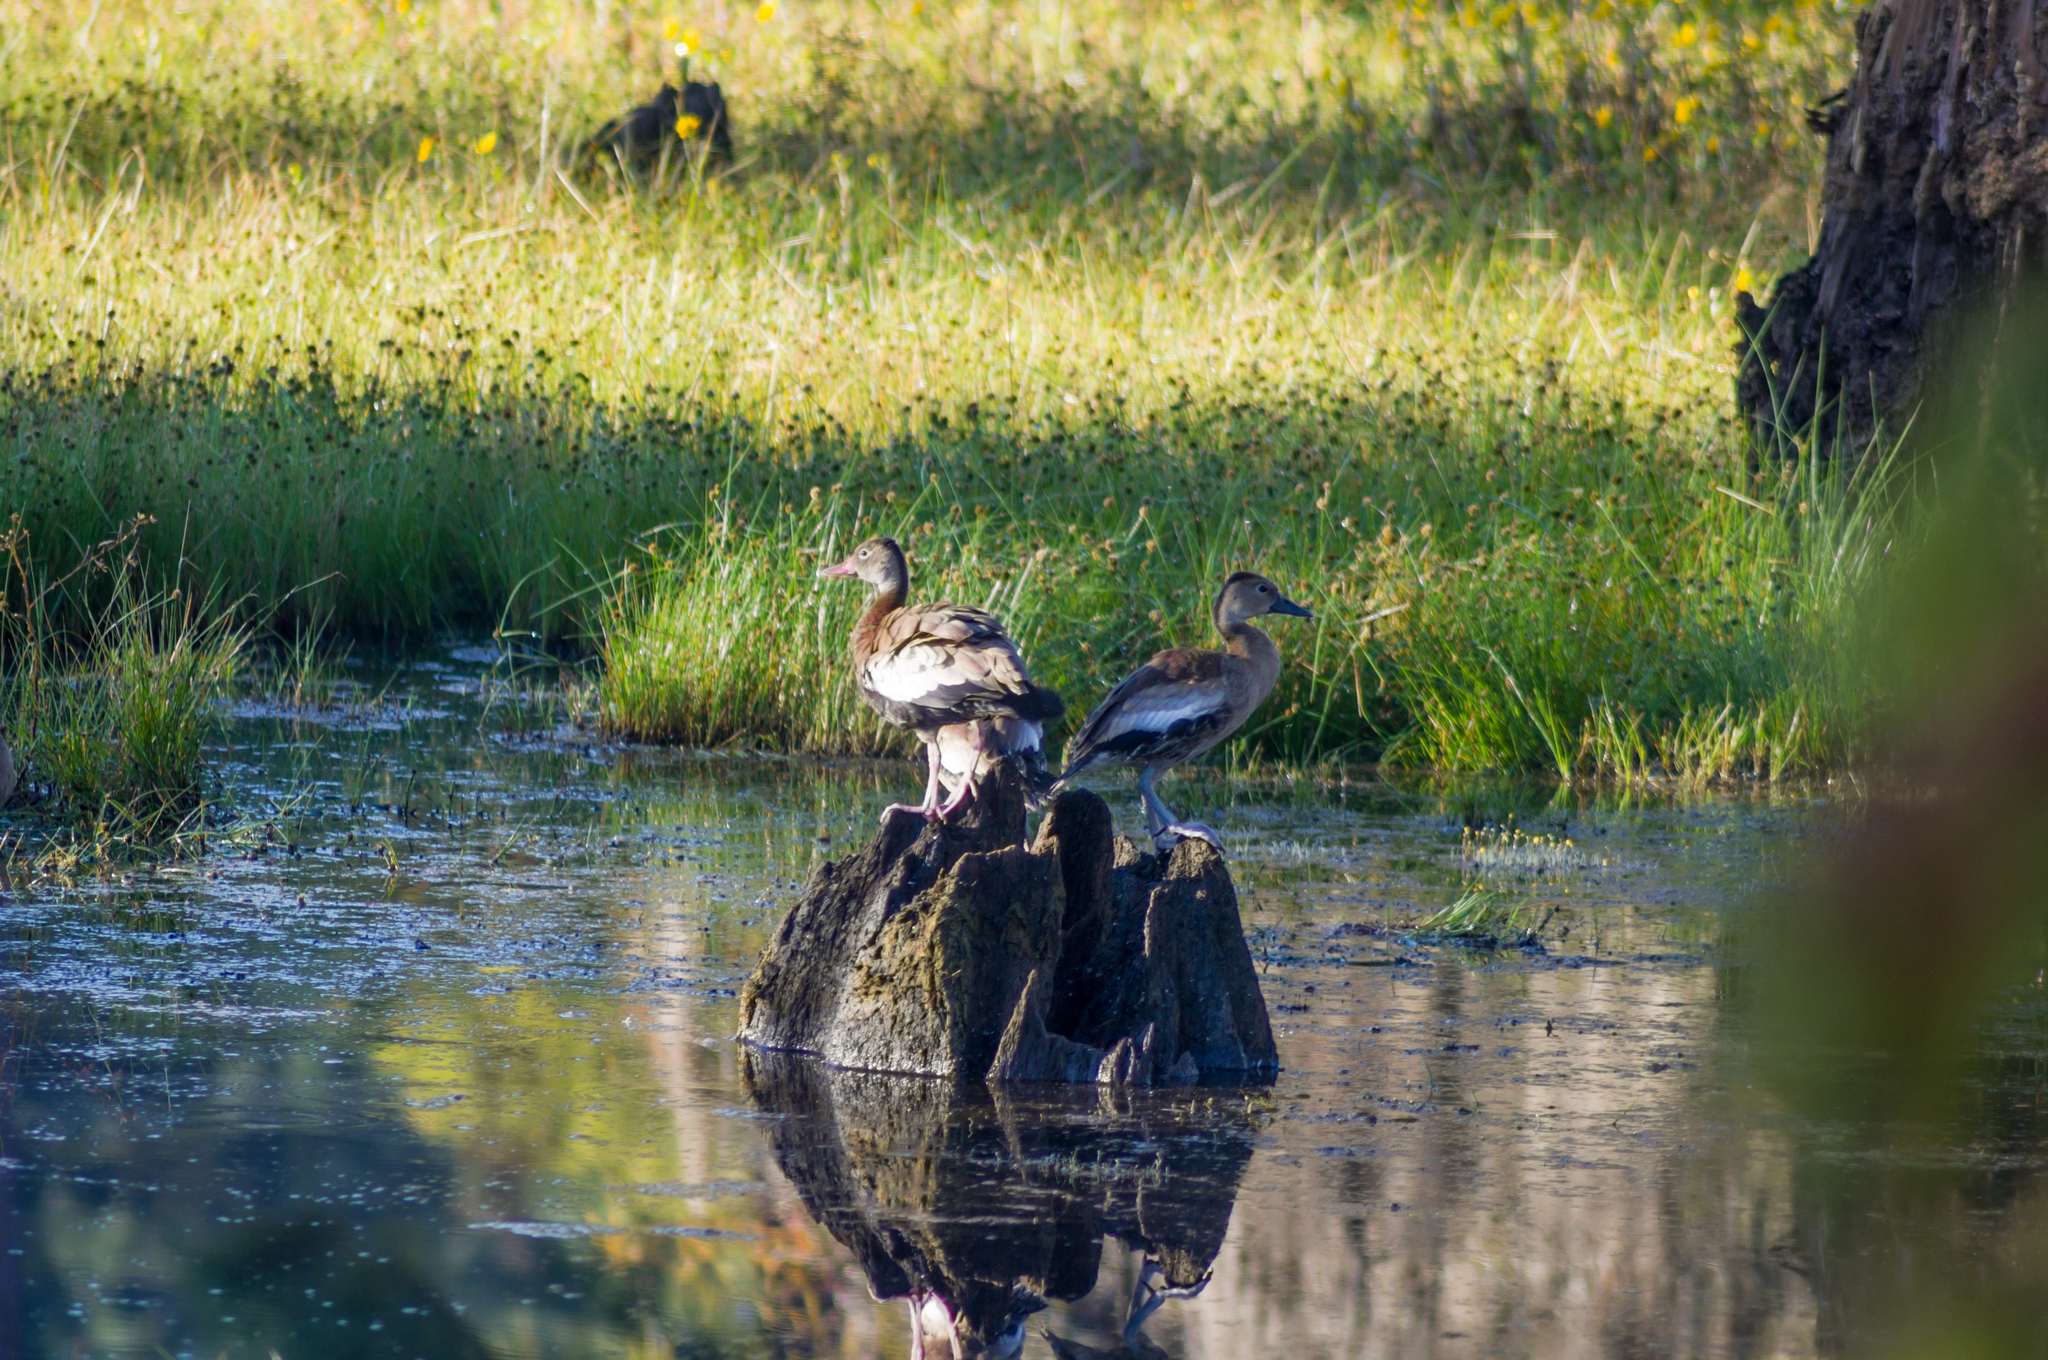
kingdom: Animalia
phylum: Chordata
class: Aves
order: Anseriformes
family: Anatidae
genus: Dendrocygna
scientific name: Dendrocygna autumnalis
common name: Black-bellied whistling duck
